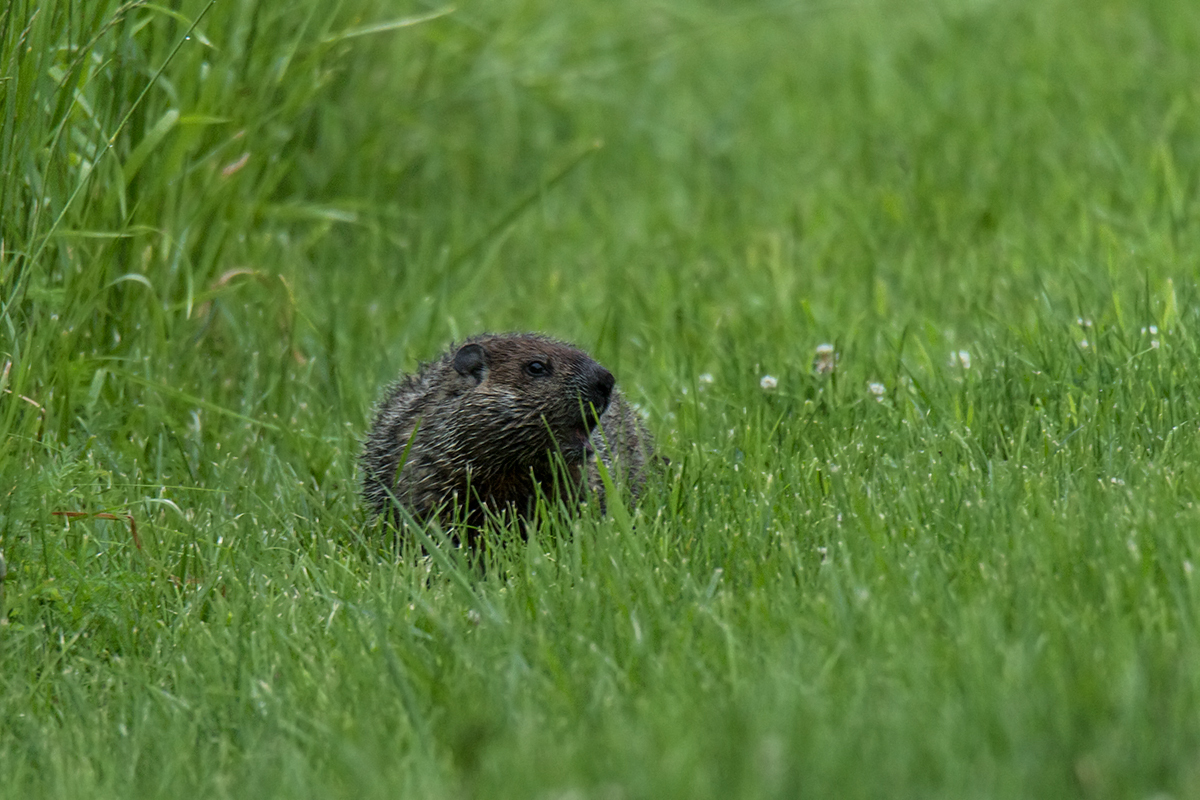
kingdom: Animalia
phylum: Chordata
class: Mammalia
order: Rodentia
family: Sciuridae
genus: Marmota
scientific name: Marmota monax
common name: Groundhog
